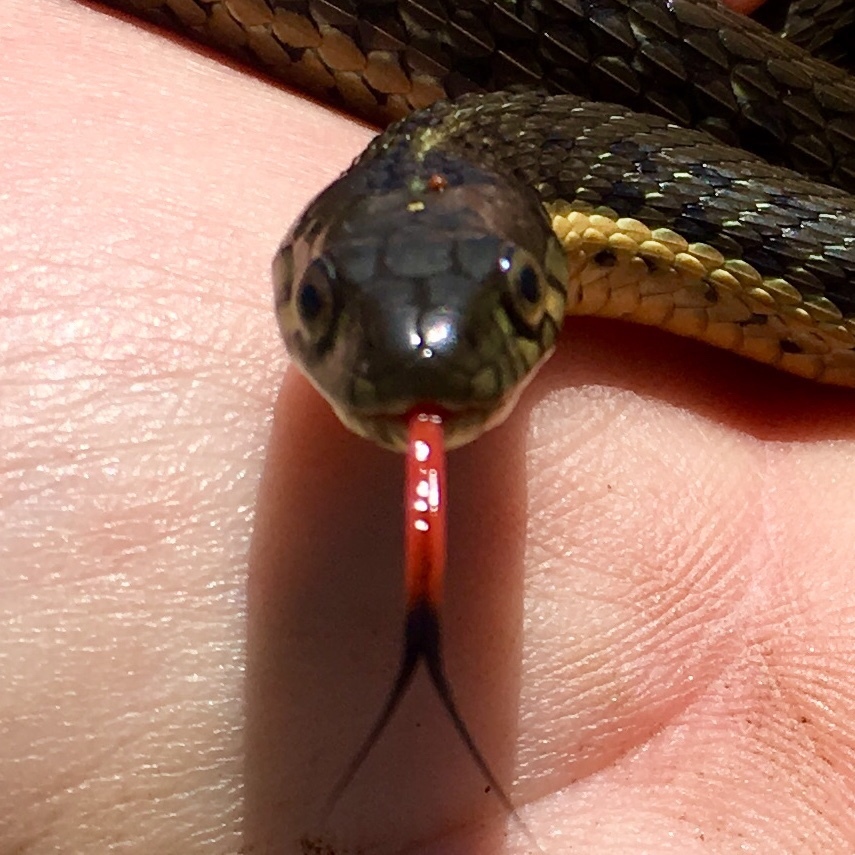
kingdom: Animalia
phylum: Chordata
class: Squamata
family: Colubridae
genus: Thamnophis
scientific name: Thamnophis hammondii
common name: Two-striped garter snake
